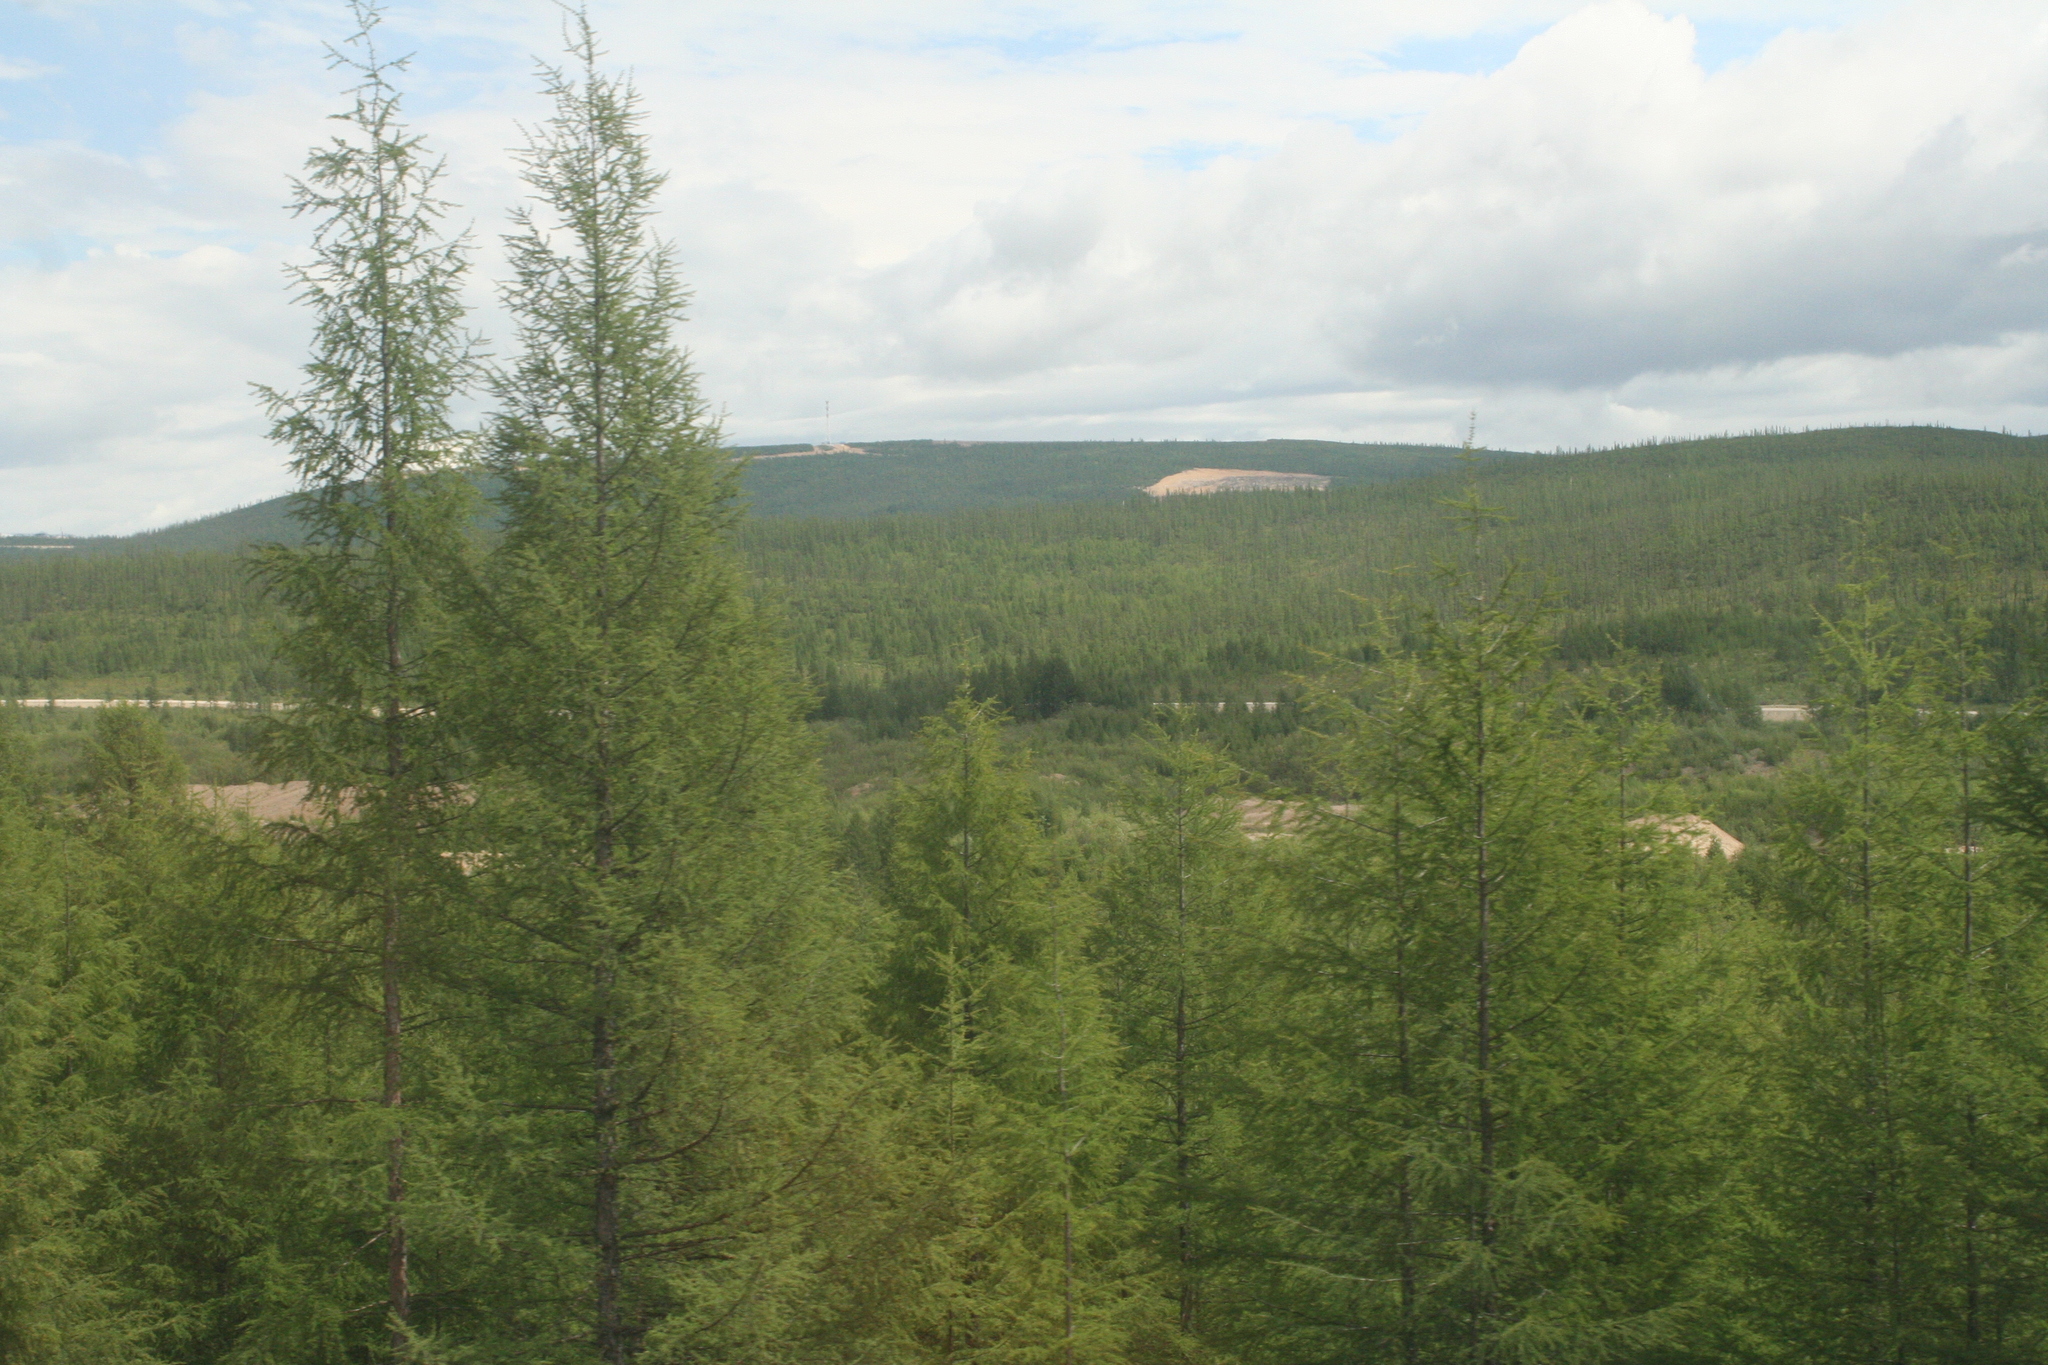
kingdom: Plantae
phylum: Tracheophyta
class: Pinopsida
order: Pinales
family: Pinaceae
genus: Larix
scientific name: Larix gmelinii
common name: Dahurian larch
